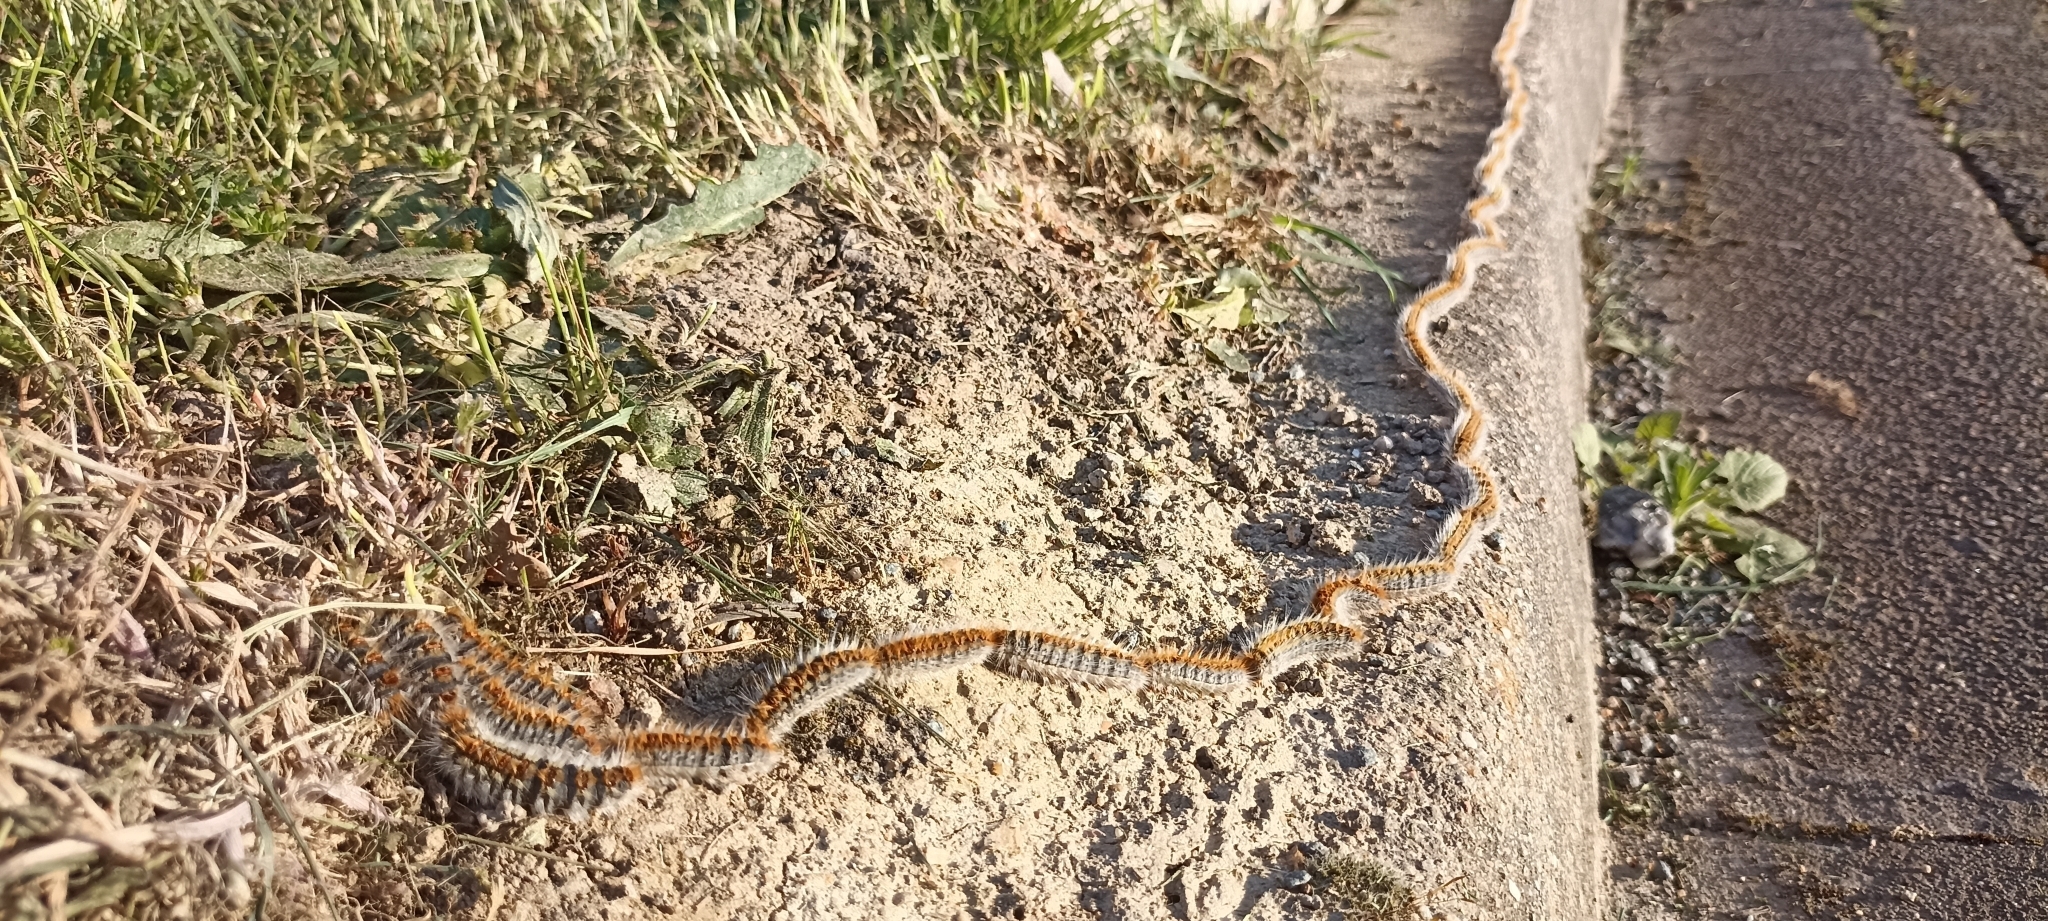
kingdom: Animalia
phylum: Arthropoda
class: Insecta
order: Lepidoptera
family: Notodontidae
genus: Thaumetopoea
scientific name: Thaumetopoea pityocampa
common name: Pine processionary
